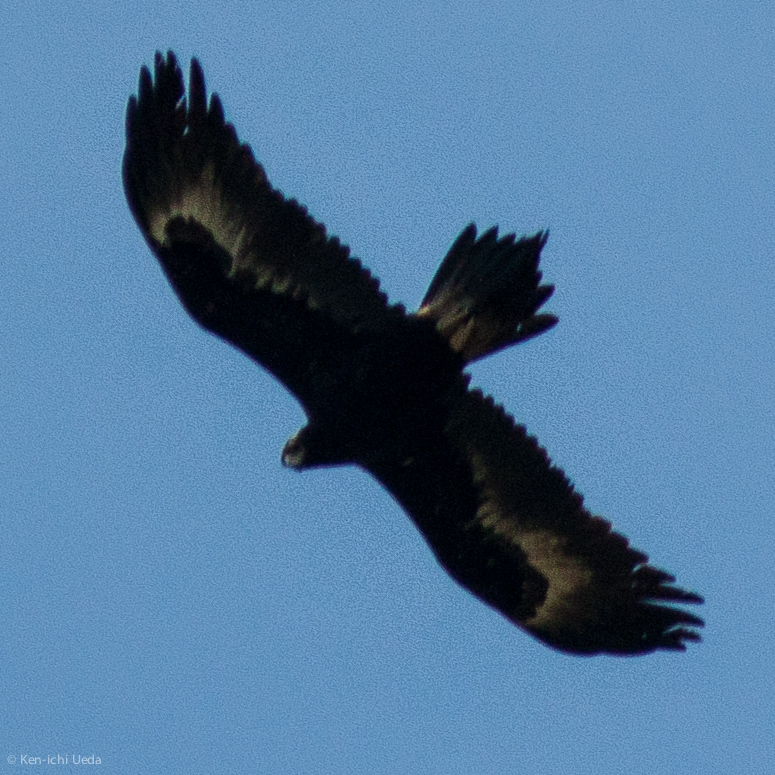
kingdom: Animalia
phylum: Chordata
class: Aves
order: Accipitriformes
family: Accipitridae
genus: Aquila
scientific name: Aquila audax
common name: Wedge-tailed eagle
